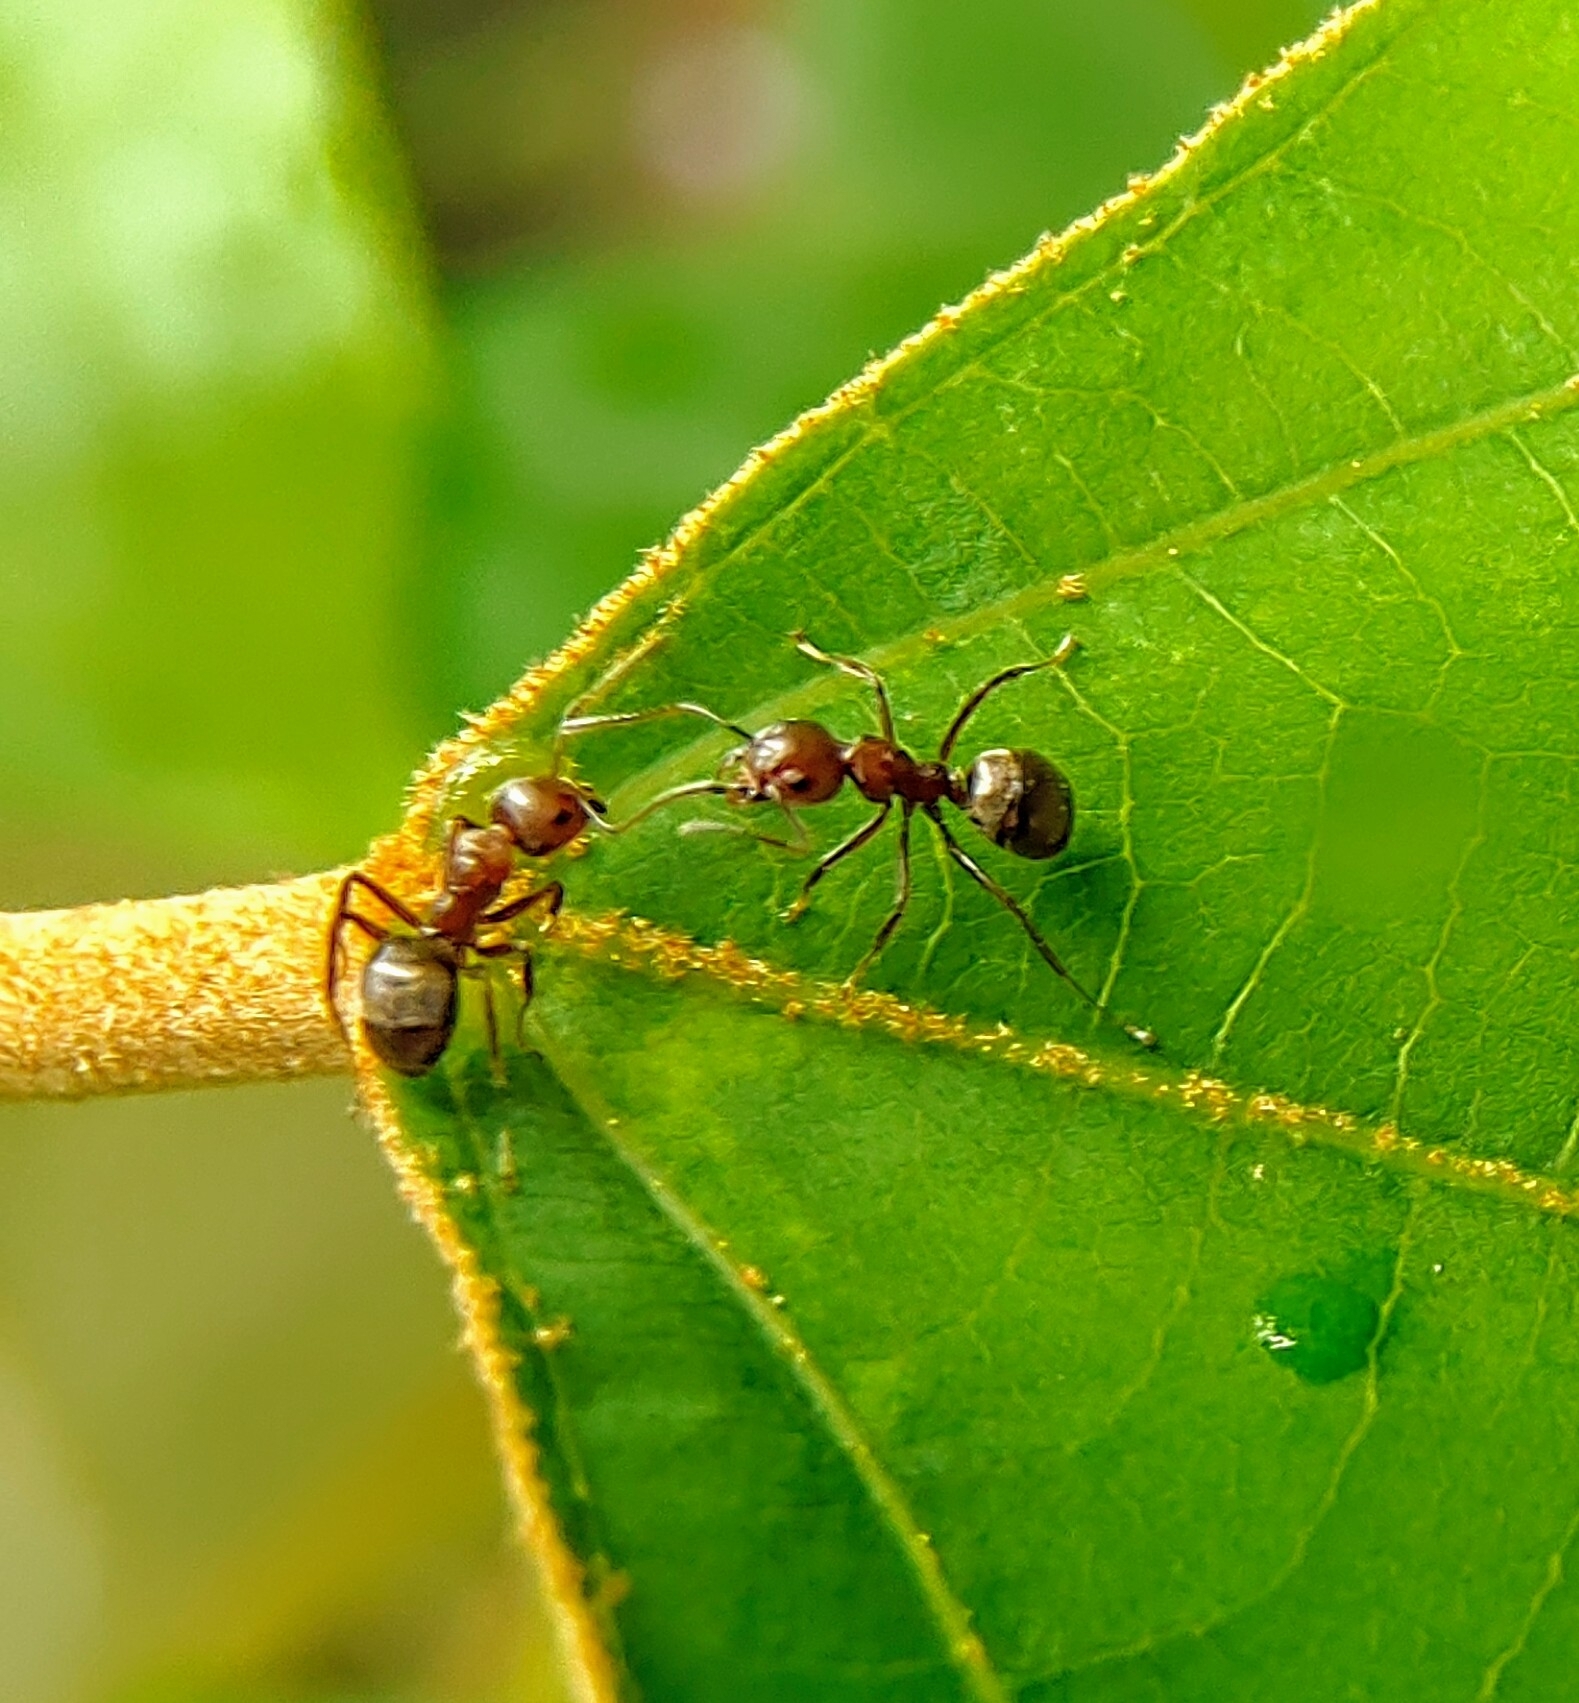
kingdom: Animalia
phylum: Arthropoda
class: Insecta
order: Hymenoptera
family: Formicidae
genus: Dolichoderus
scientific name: Dolichoderus thoracicus
